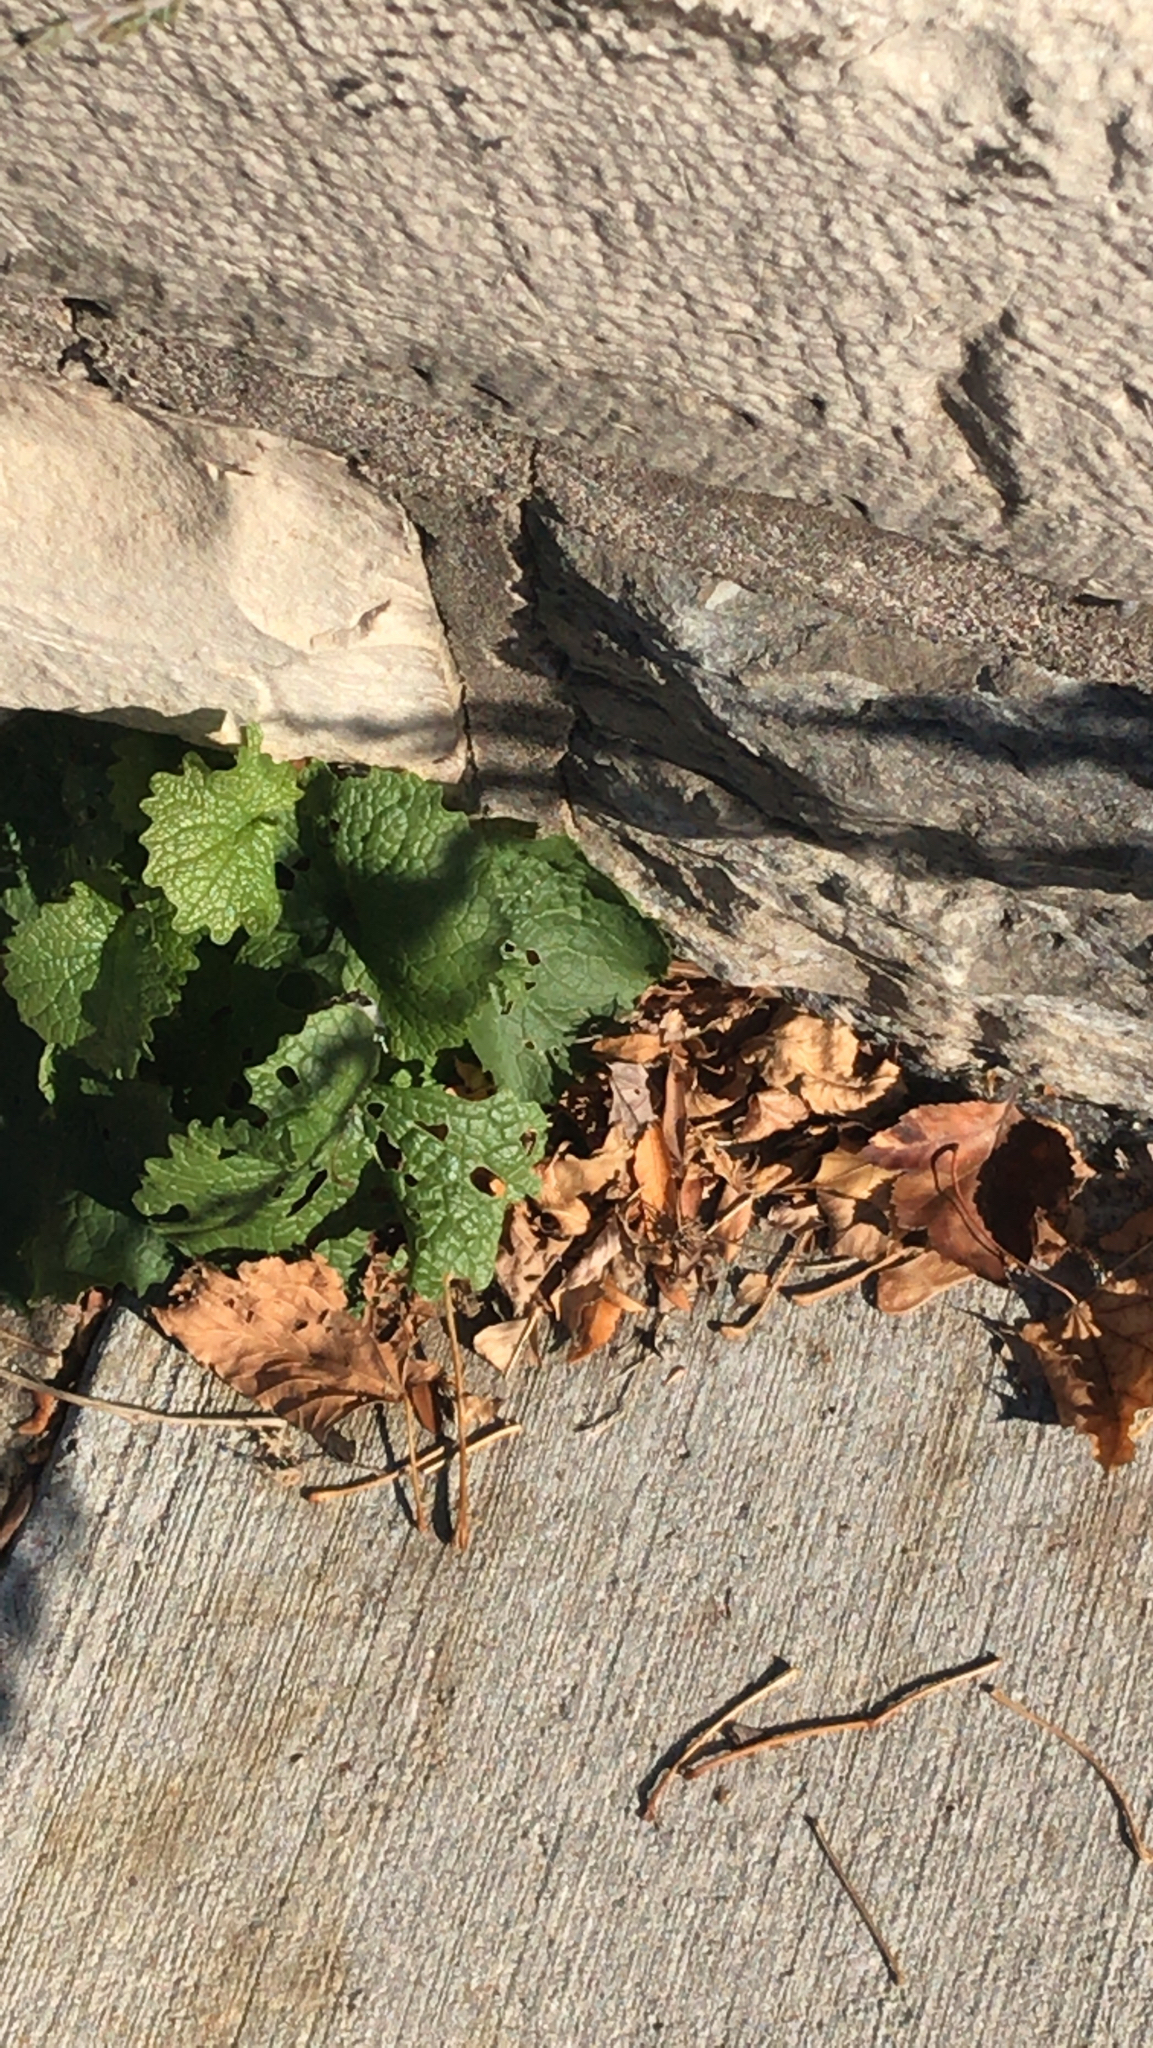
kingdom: Plantae
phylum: Tracheophyta
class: Magnoliopsida
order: Brassicales
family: Brassicaceae
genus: Alliaria
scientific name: Alliaria petiolata
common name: Garlic mustard
